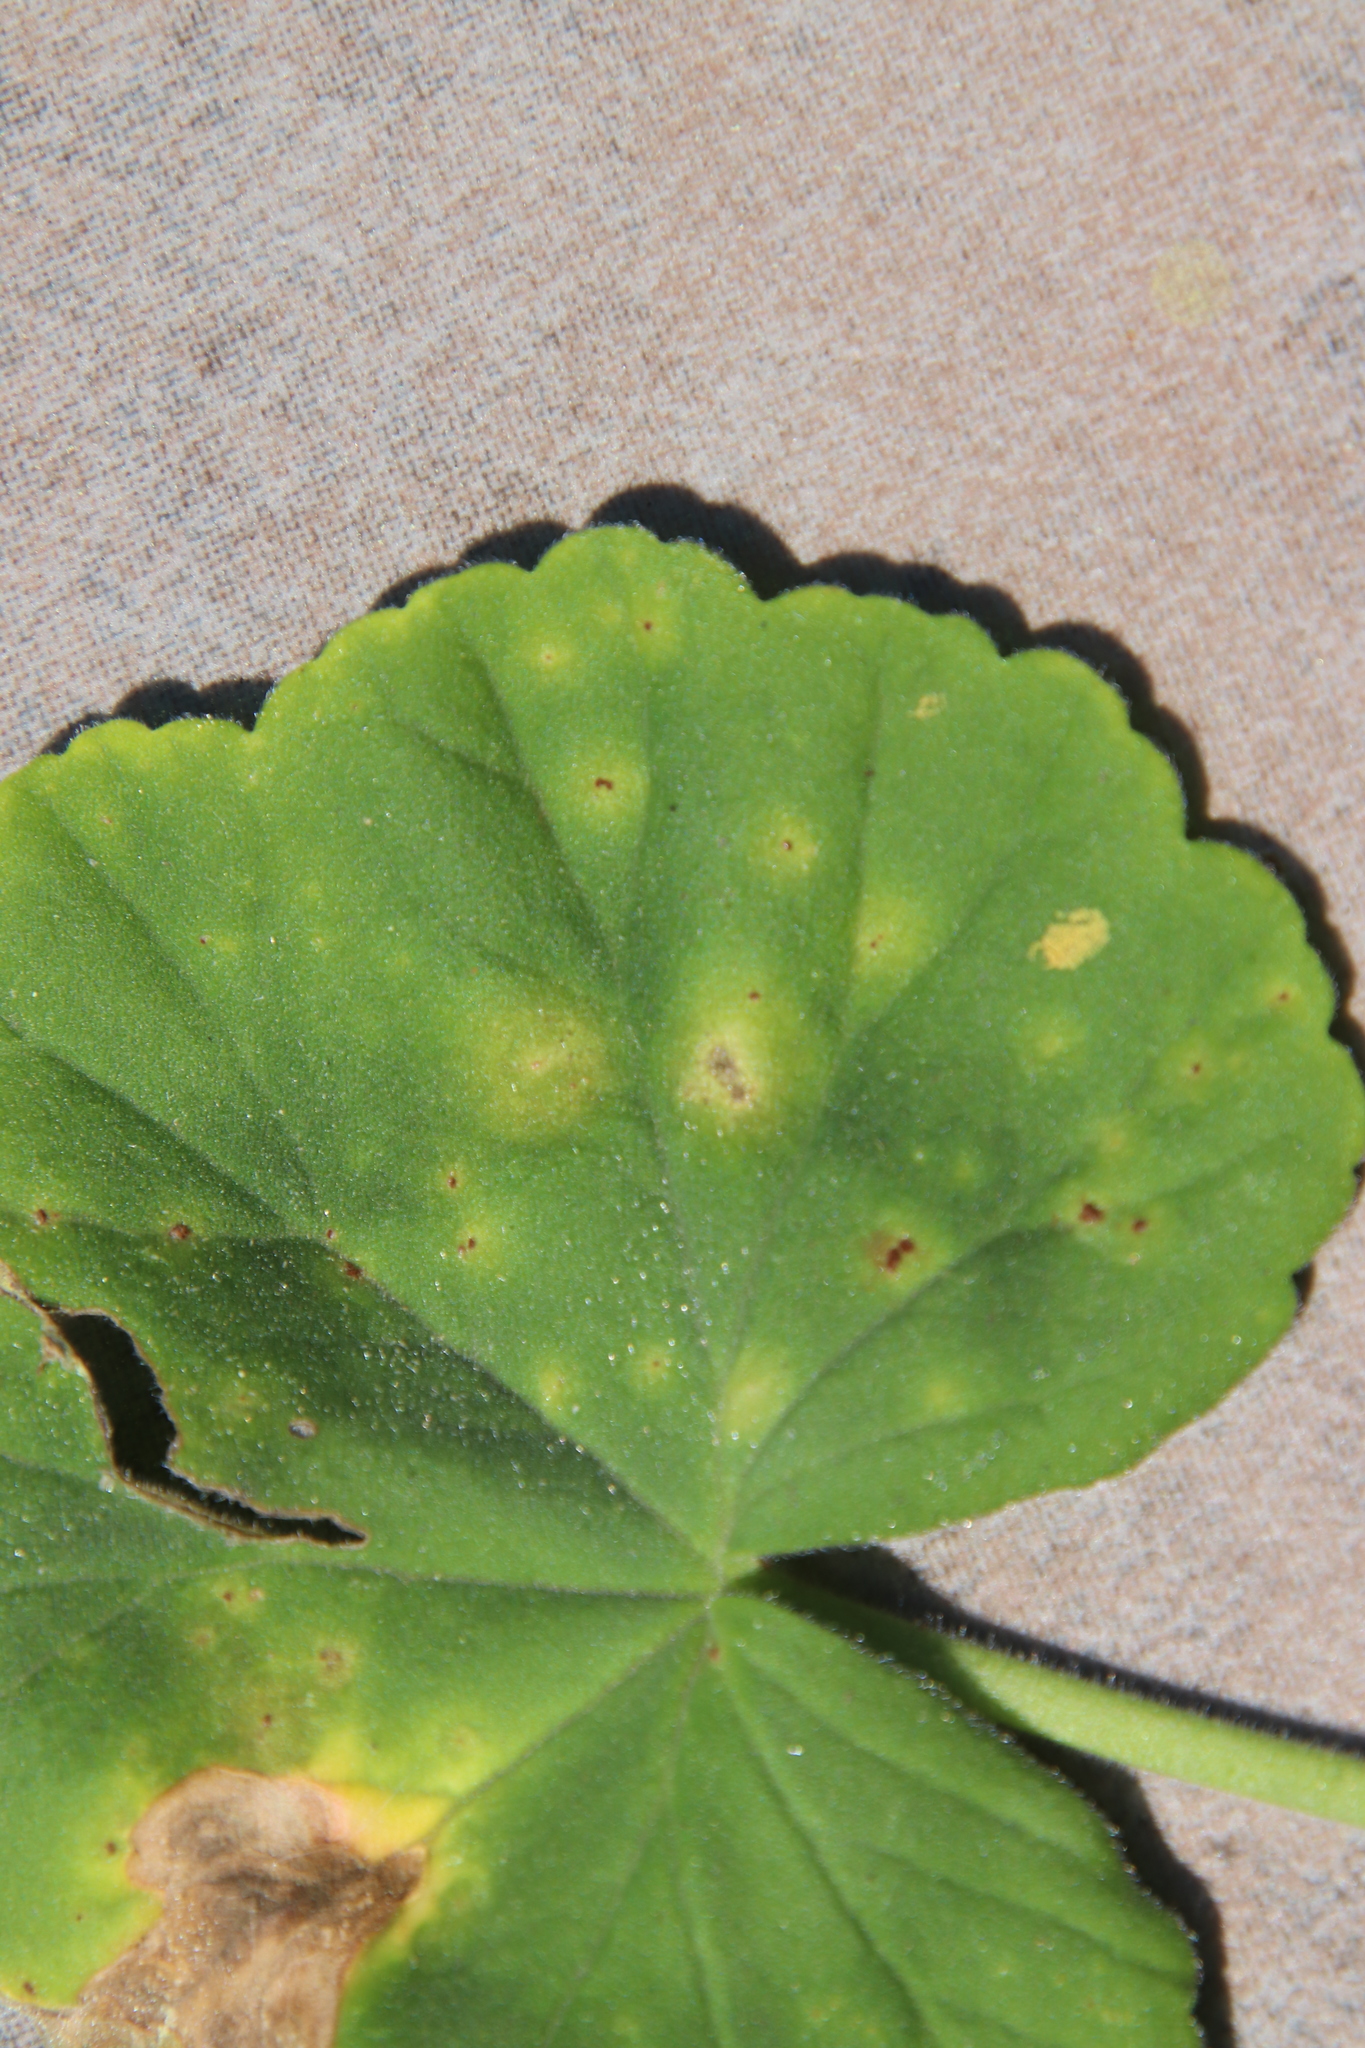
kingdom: Fungi
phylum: Basidiomycota
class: Pucciniomycetes
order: Pucciniales
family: Pucciniaceae
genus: Puccinia
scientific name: Puccinia pelargonii-zonalis
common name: Rust of pelargonium
